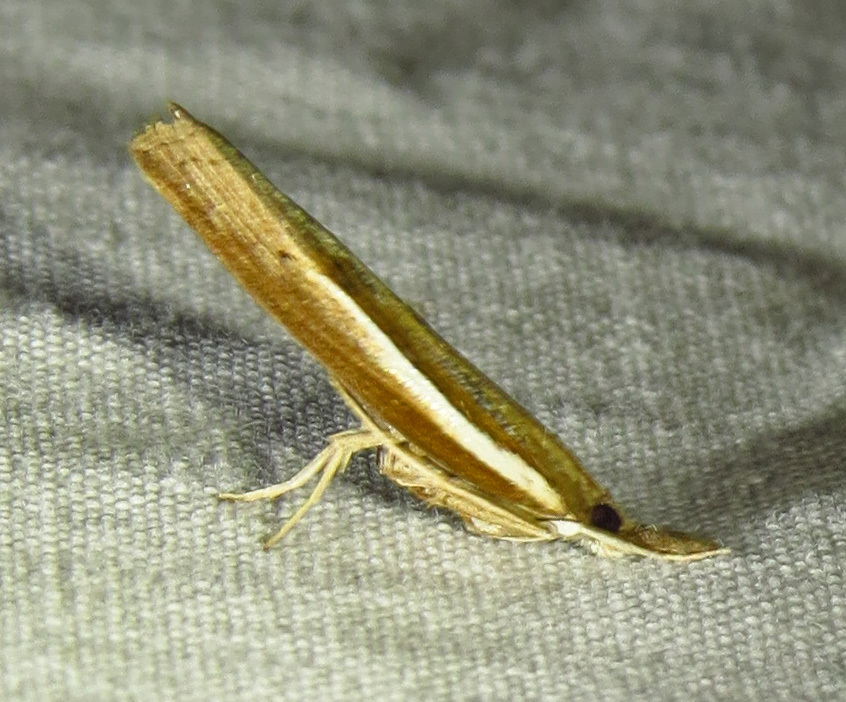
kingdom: Animalia
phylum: Arthropoda
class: Insecta
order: Lepidoptera
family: Crambidae
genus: Fissicrambus
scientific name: Fissicrambus fissiradiellus
